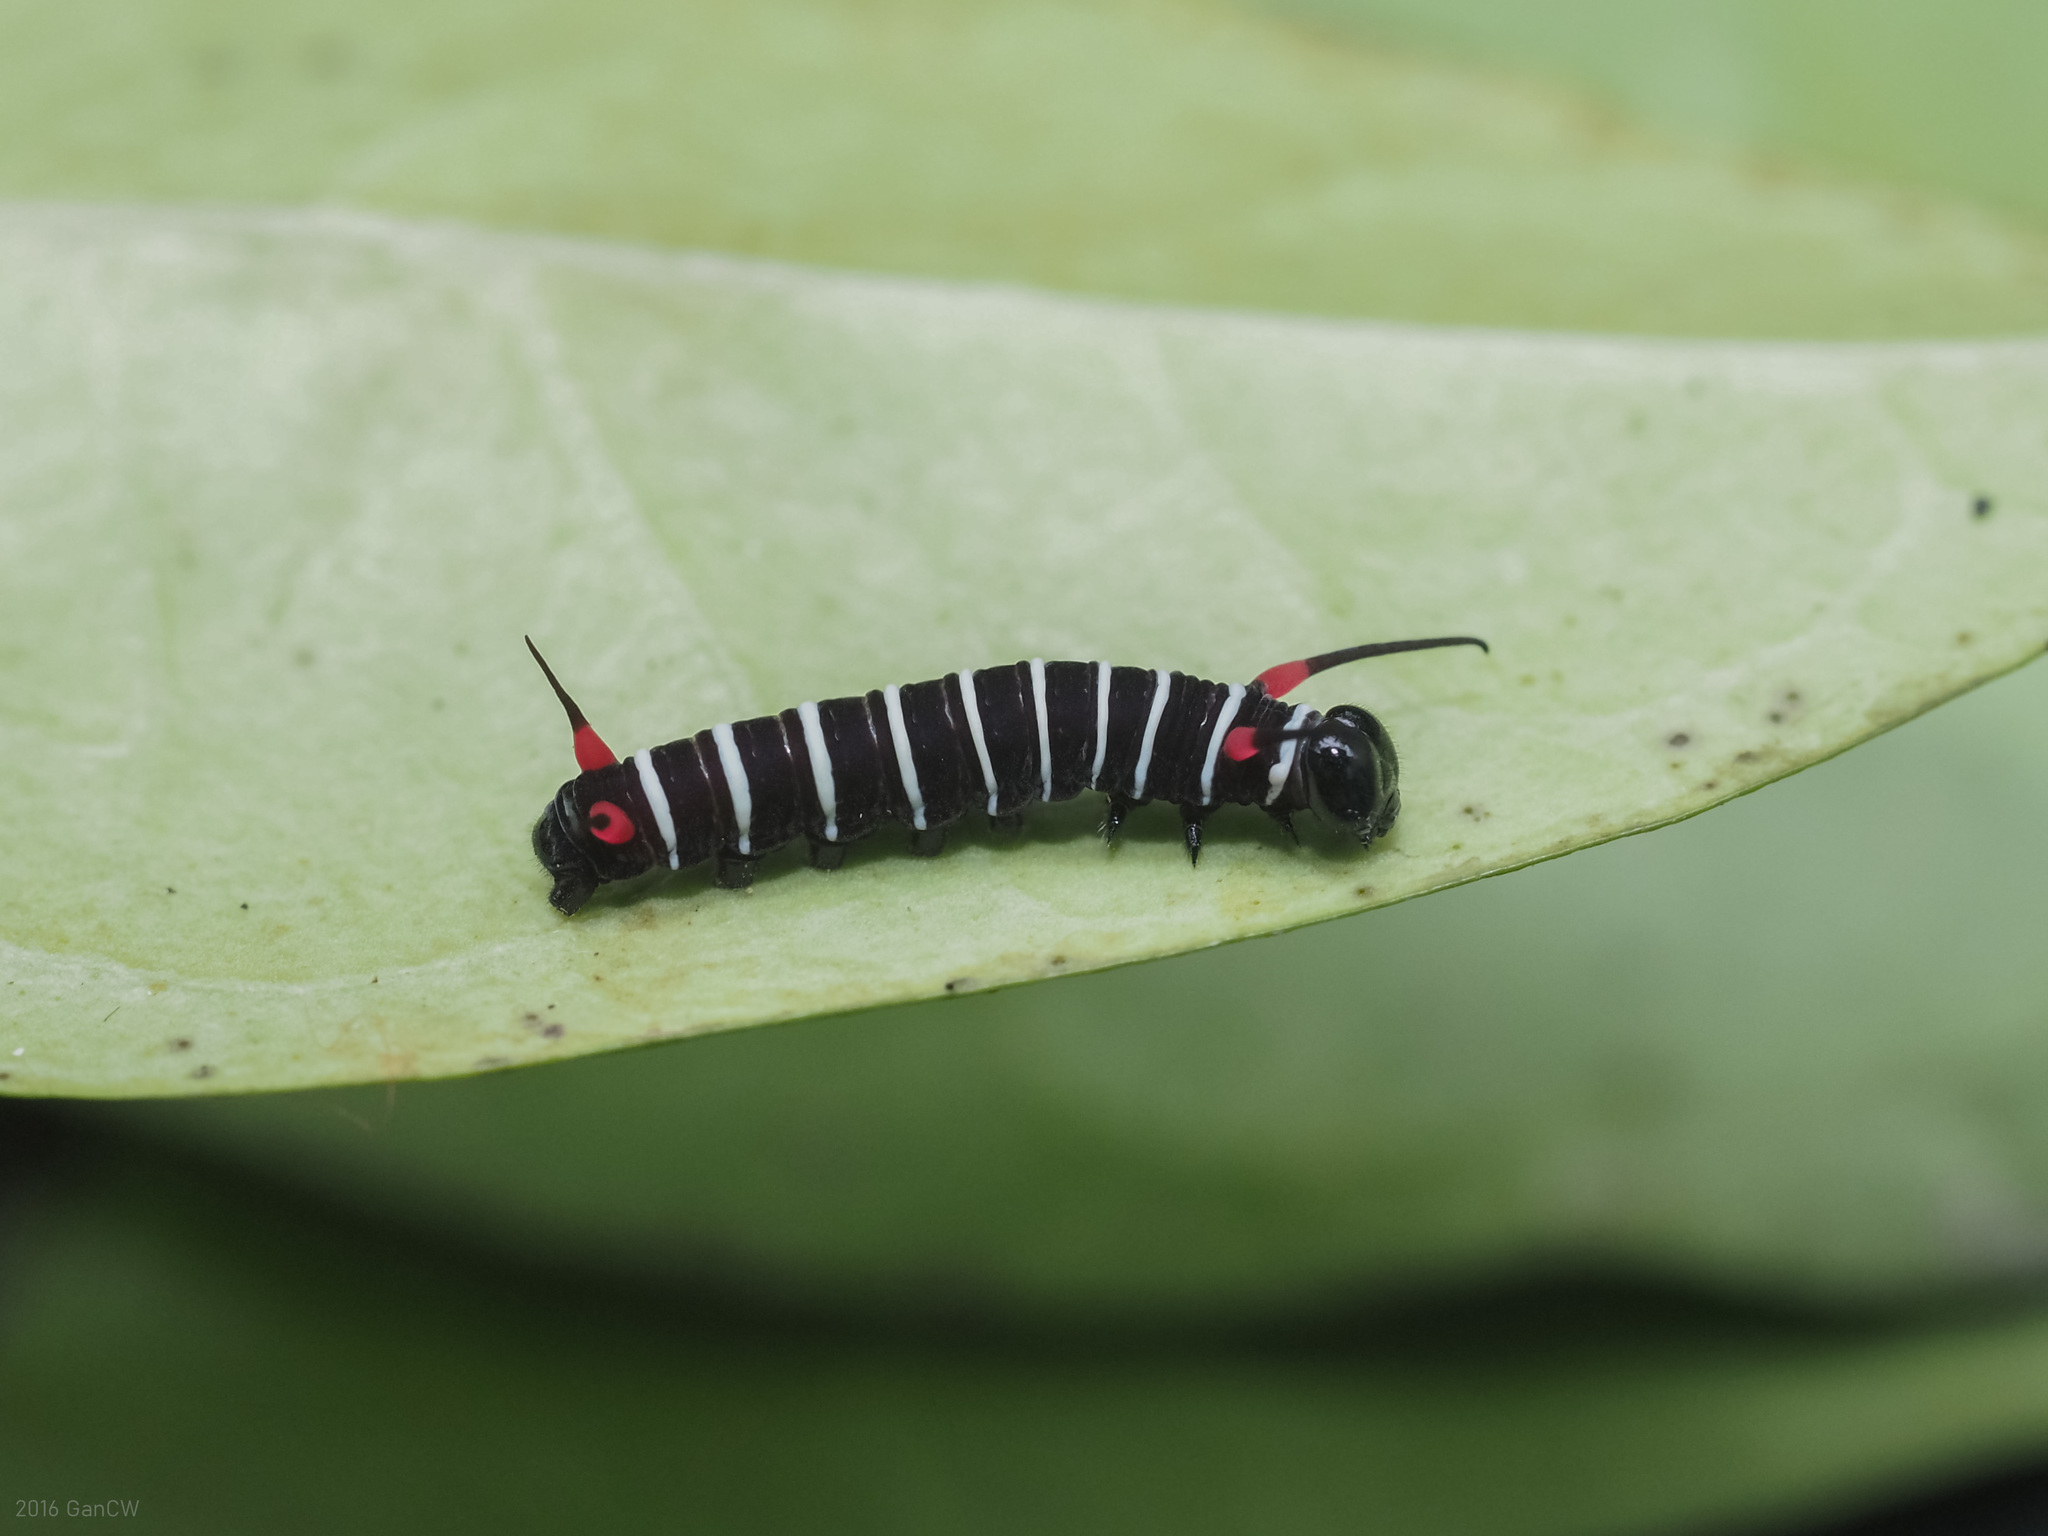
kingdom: Animalia
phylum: Arthropoda
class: Insecta
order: Lepidoptera
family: Nymphalidae
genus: Ideopsis
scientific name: Ideopsis gaura
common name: Smaller wood nymph
